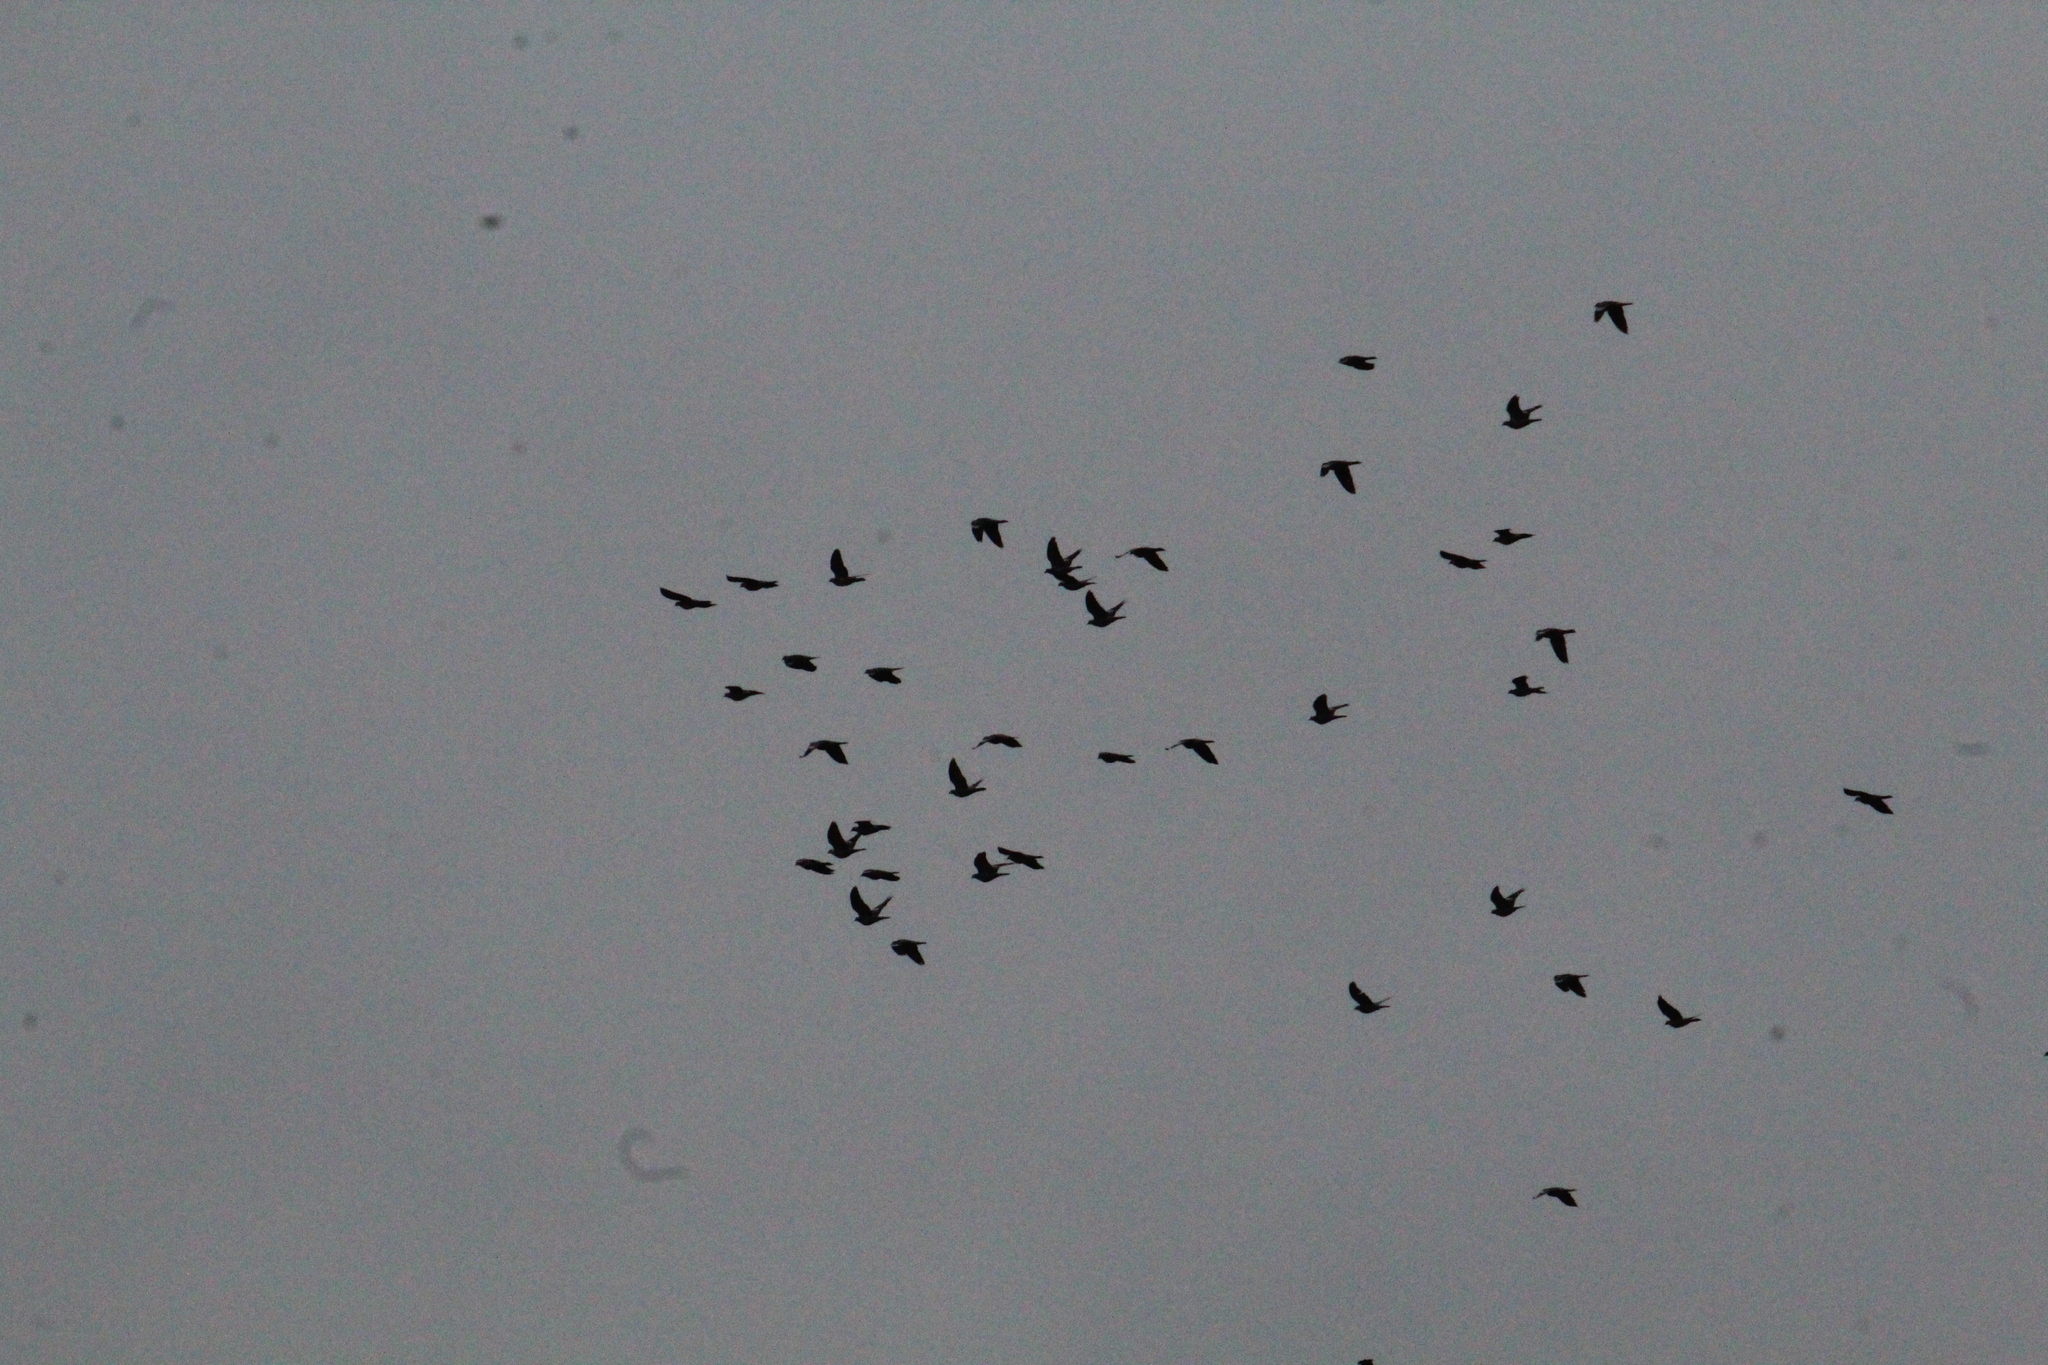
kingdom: Animalia
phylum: Chordata
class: Aves
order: Columbiformes
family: Columbidae
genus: Columba
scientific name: Columba palumbus
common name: Common wood pigeon
